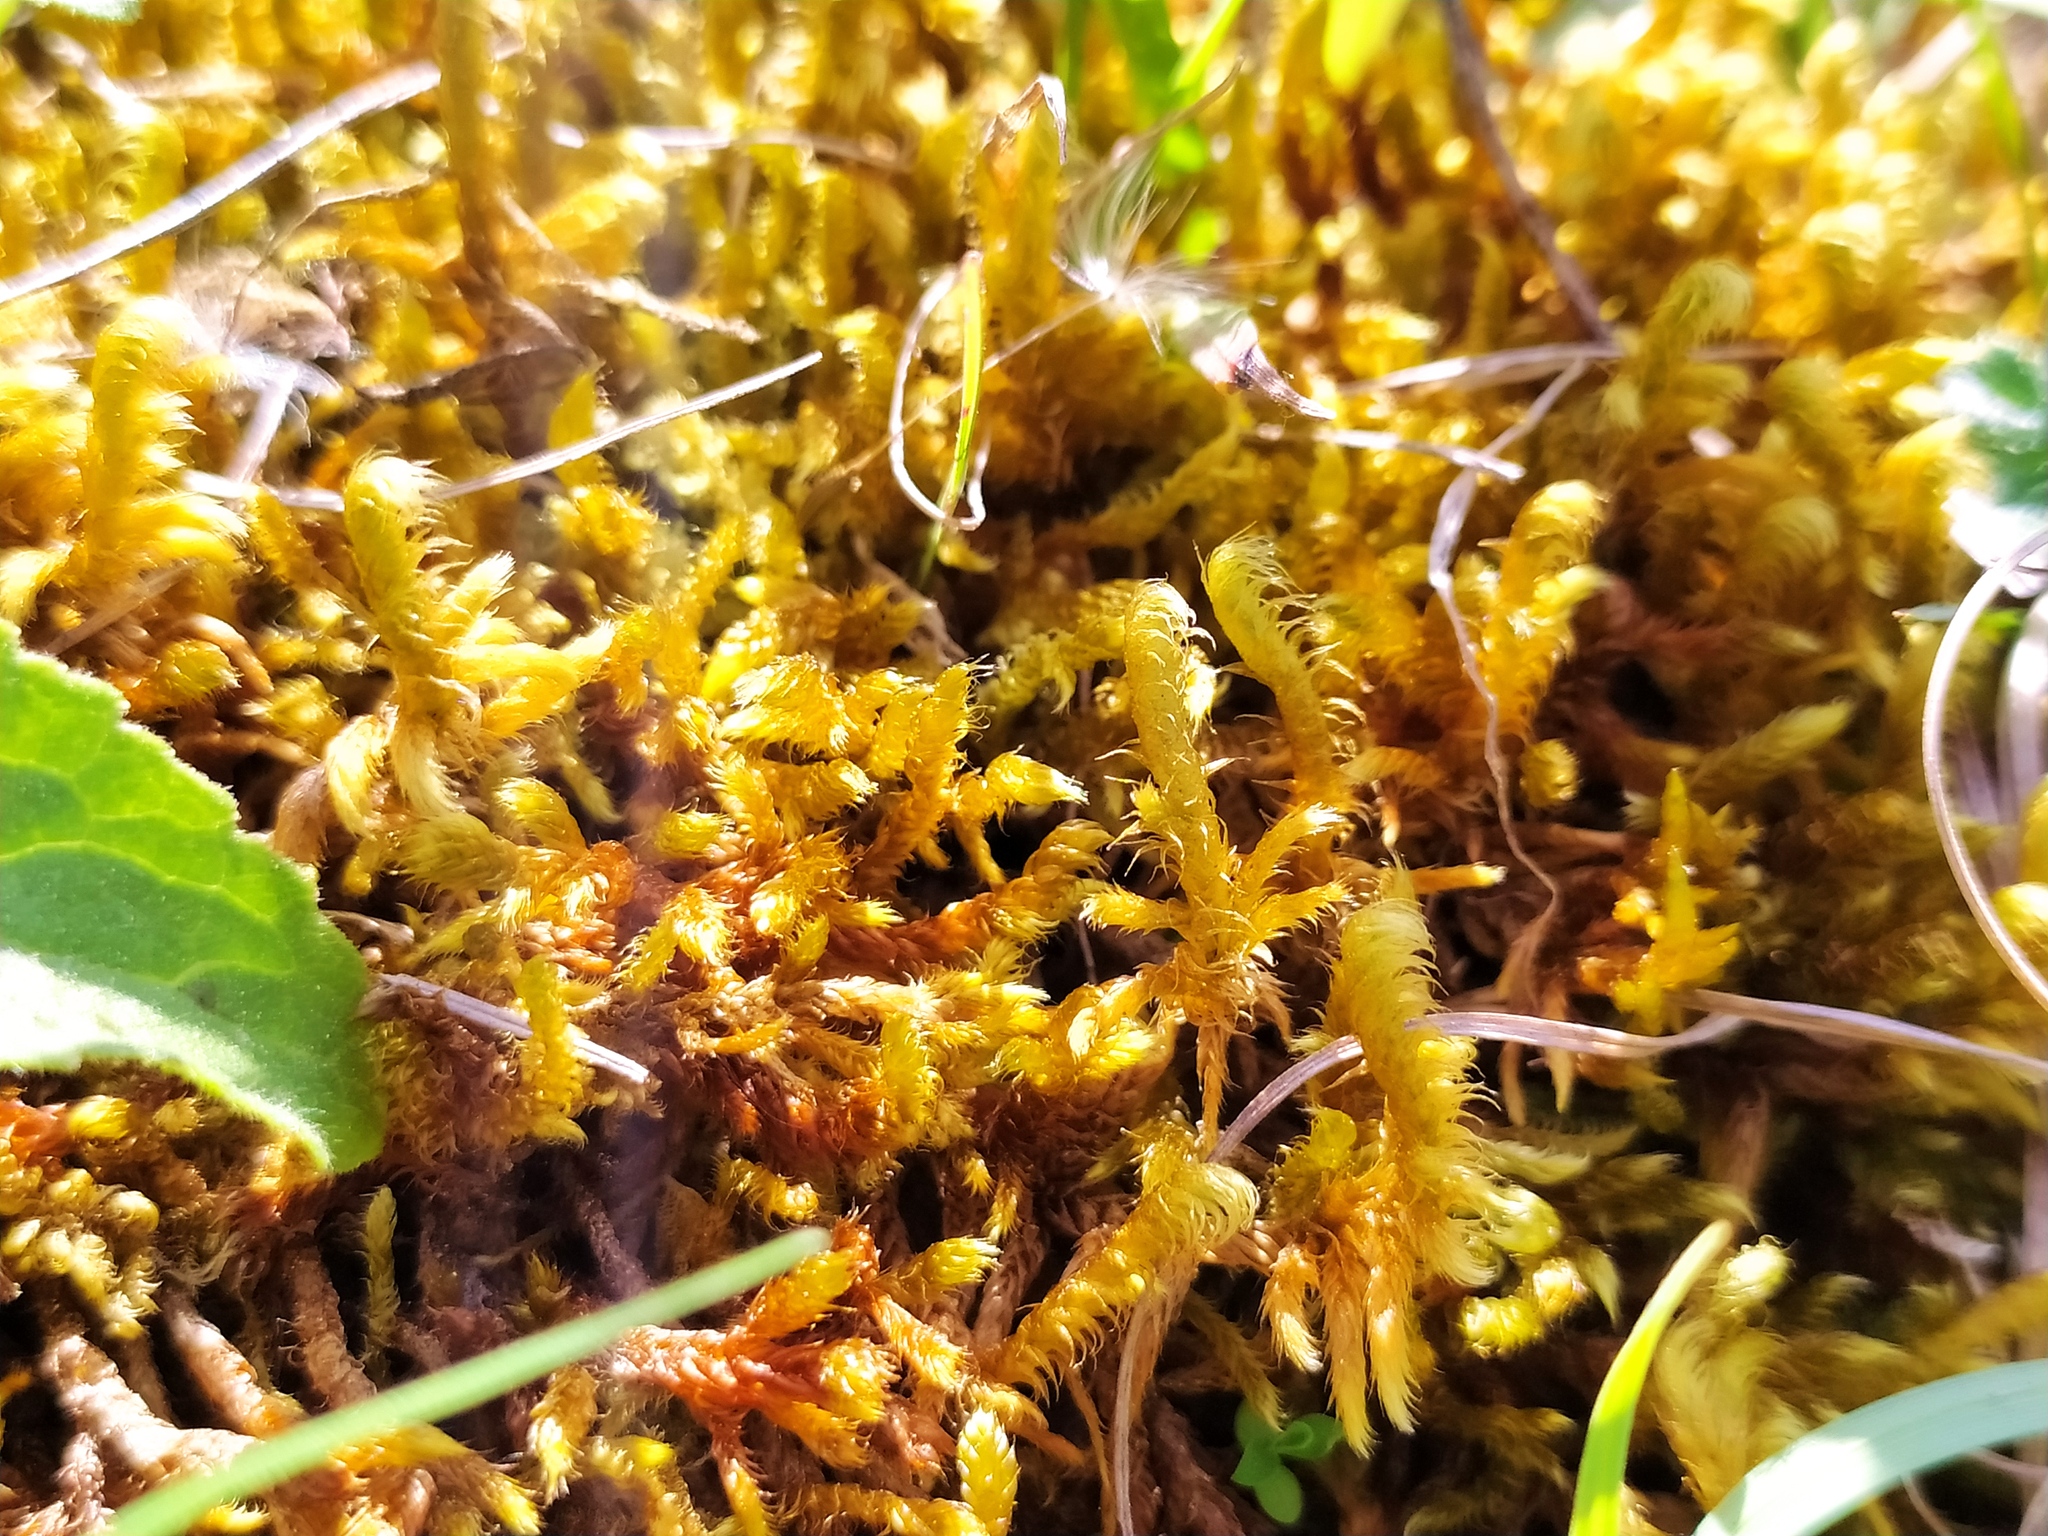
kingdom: Plantae
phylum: Bryophyta
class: Bryopsida
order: Hypnales
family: Rhytidiaceae
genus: Rhytidium
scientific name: Rhytidium rugosum
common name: Wrinkle-leaved moss
